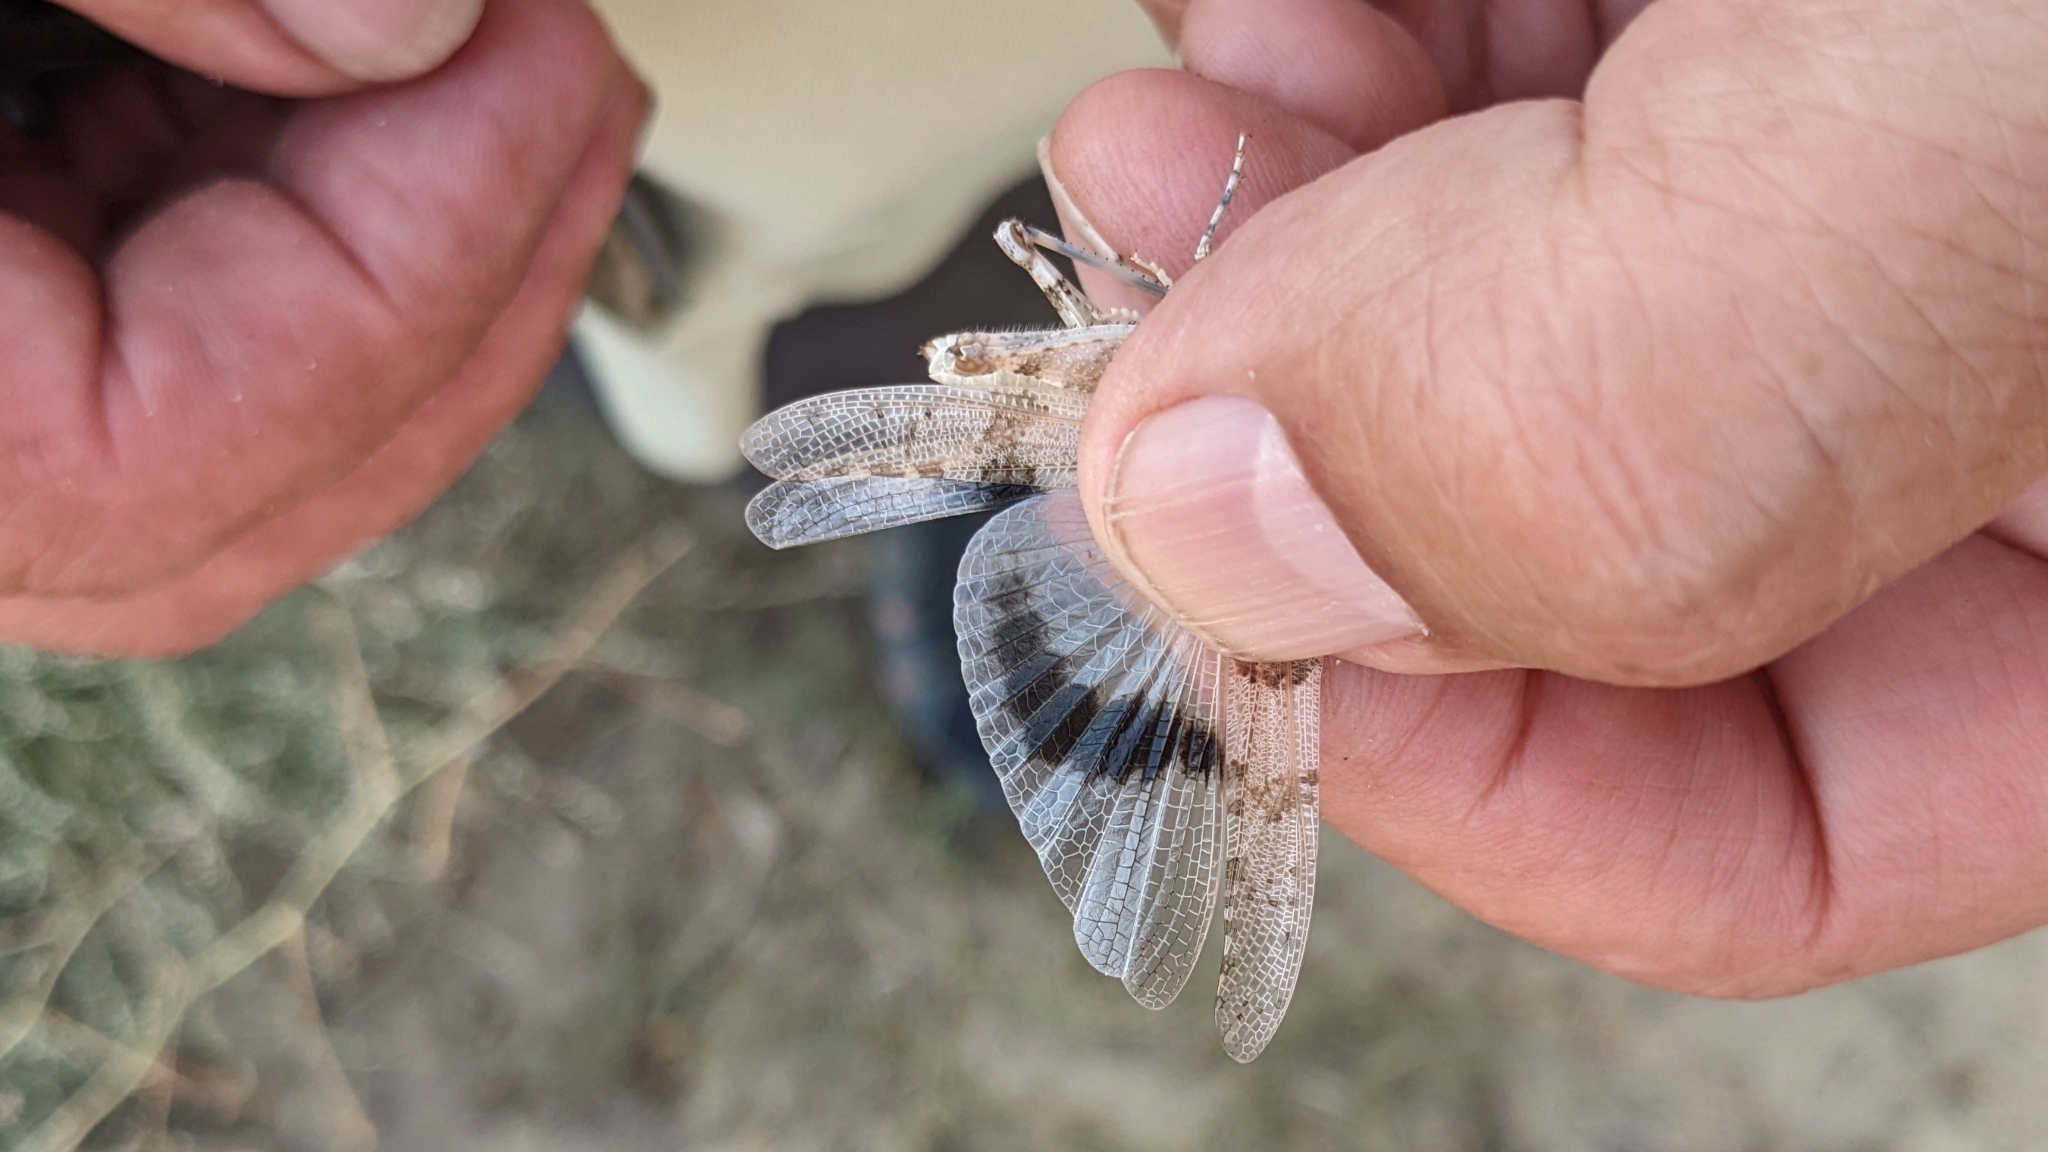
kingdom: Animalia
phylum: Arthropoda
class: Insecta
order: Orthoptera
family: Acrididae
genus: Sphingonotus
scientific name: Sphingonotus morini
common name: Morin's sand grasshopper
